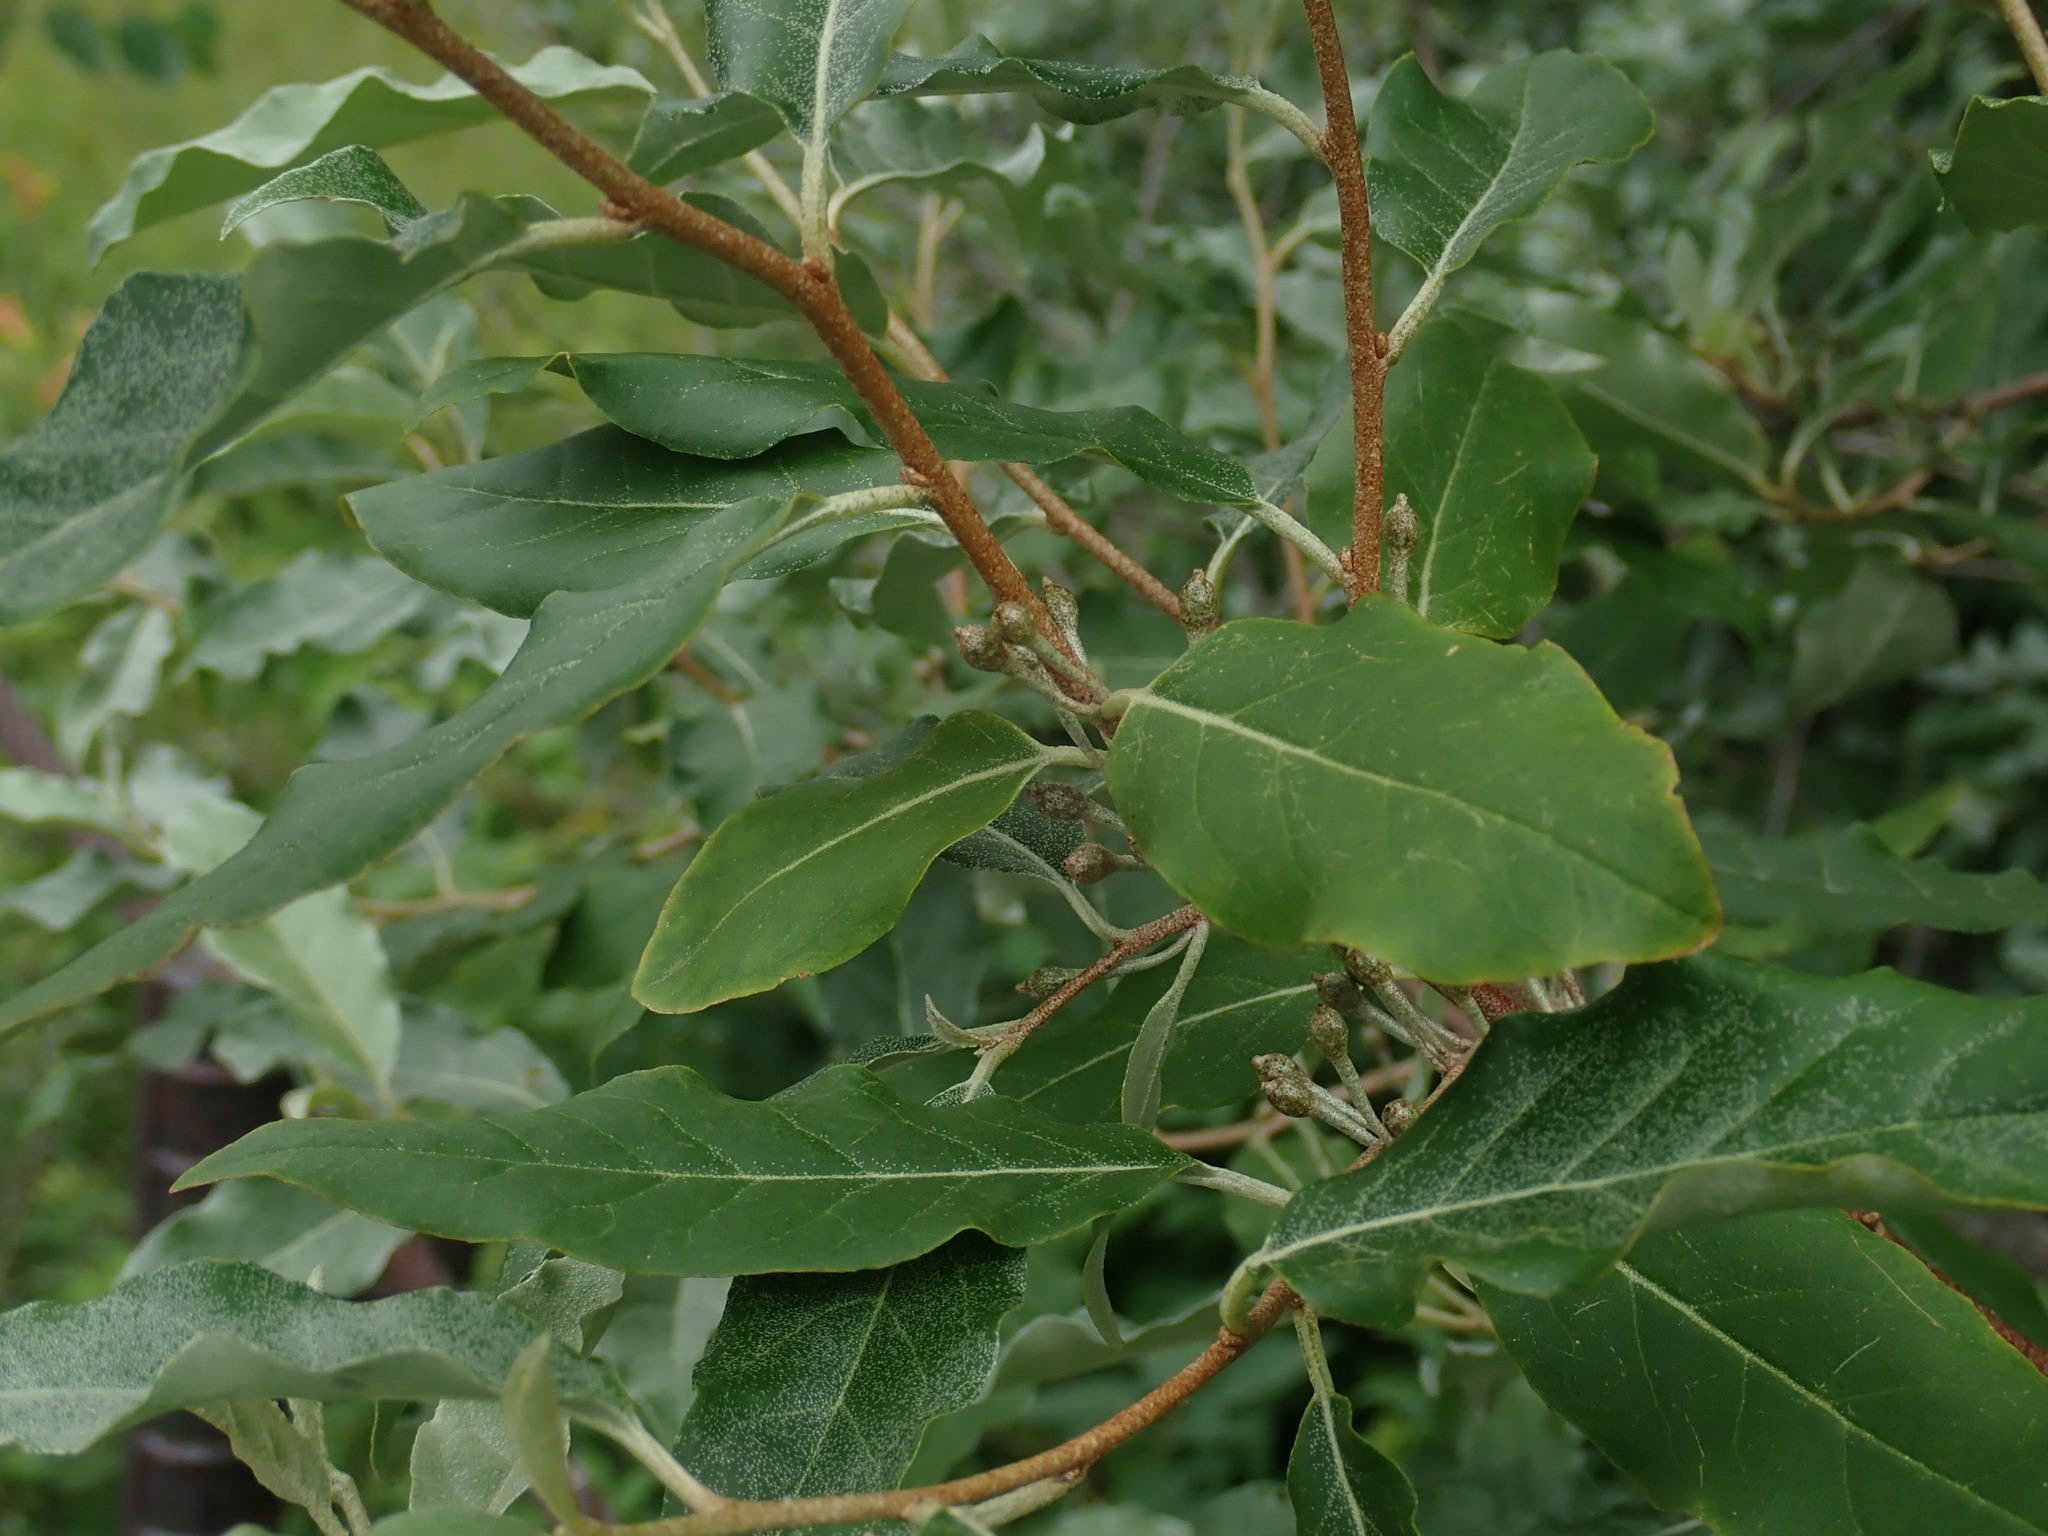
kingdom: Plantae
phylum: Tracheophyta
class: Magnoliopsida
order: Rosales
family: Elaeagnaceae
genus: Elaeagnus
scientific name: Elaeagnus umbellata
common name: Autumn olive
